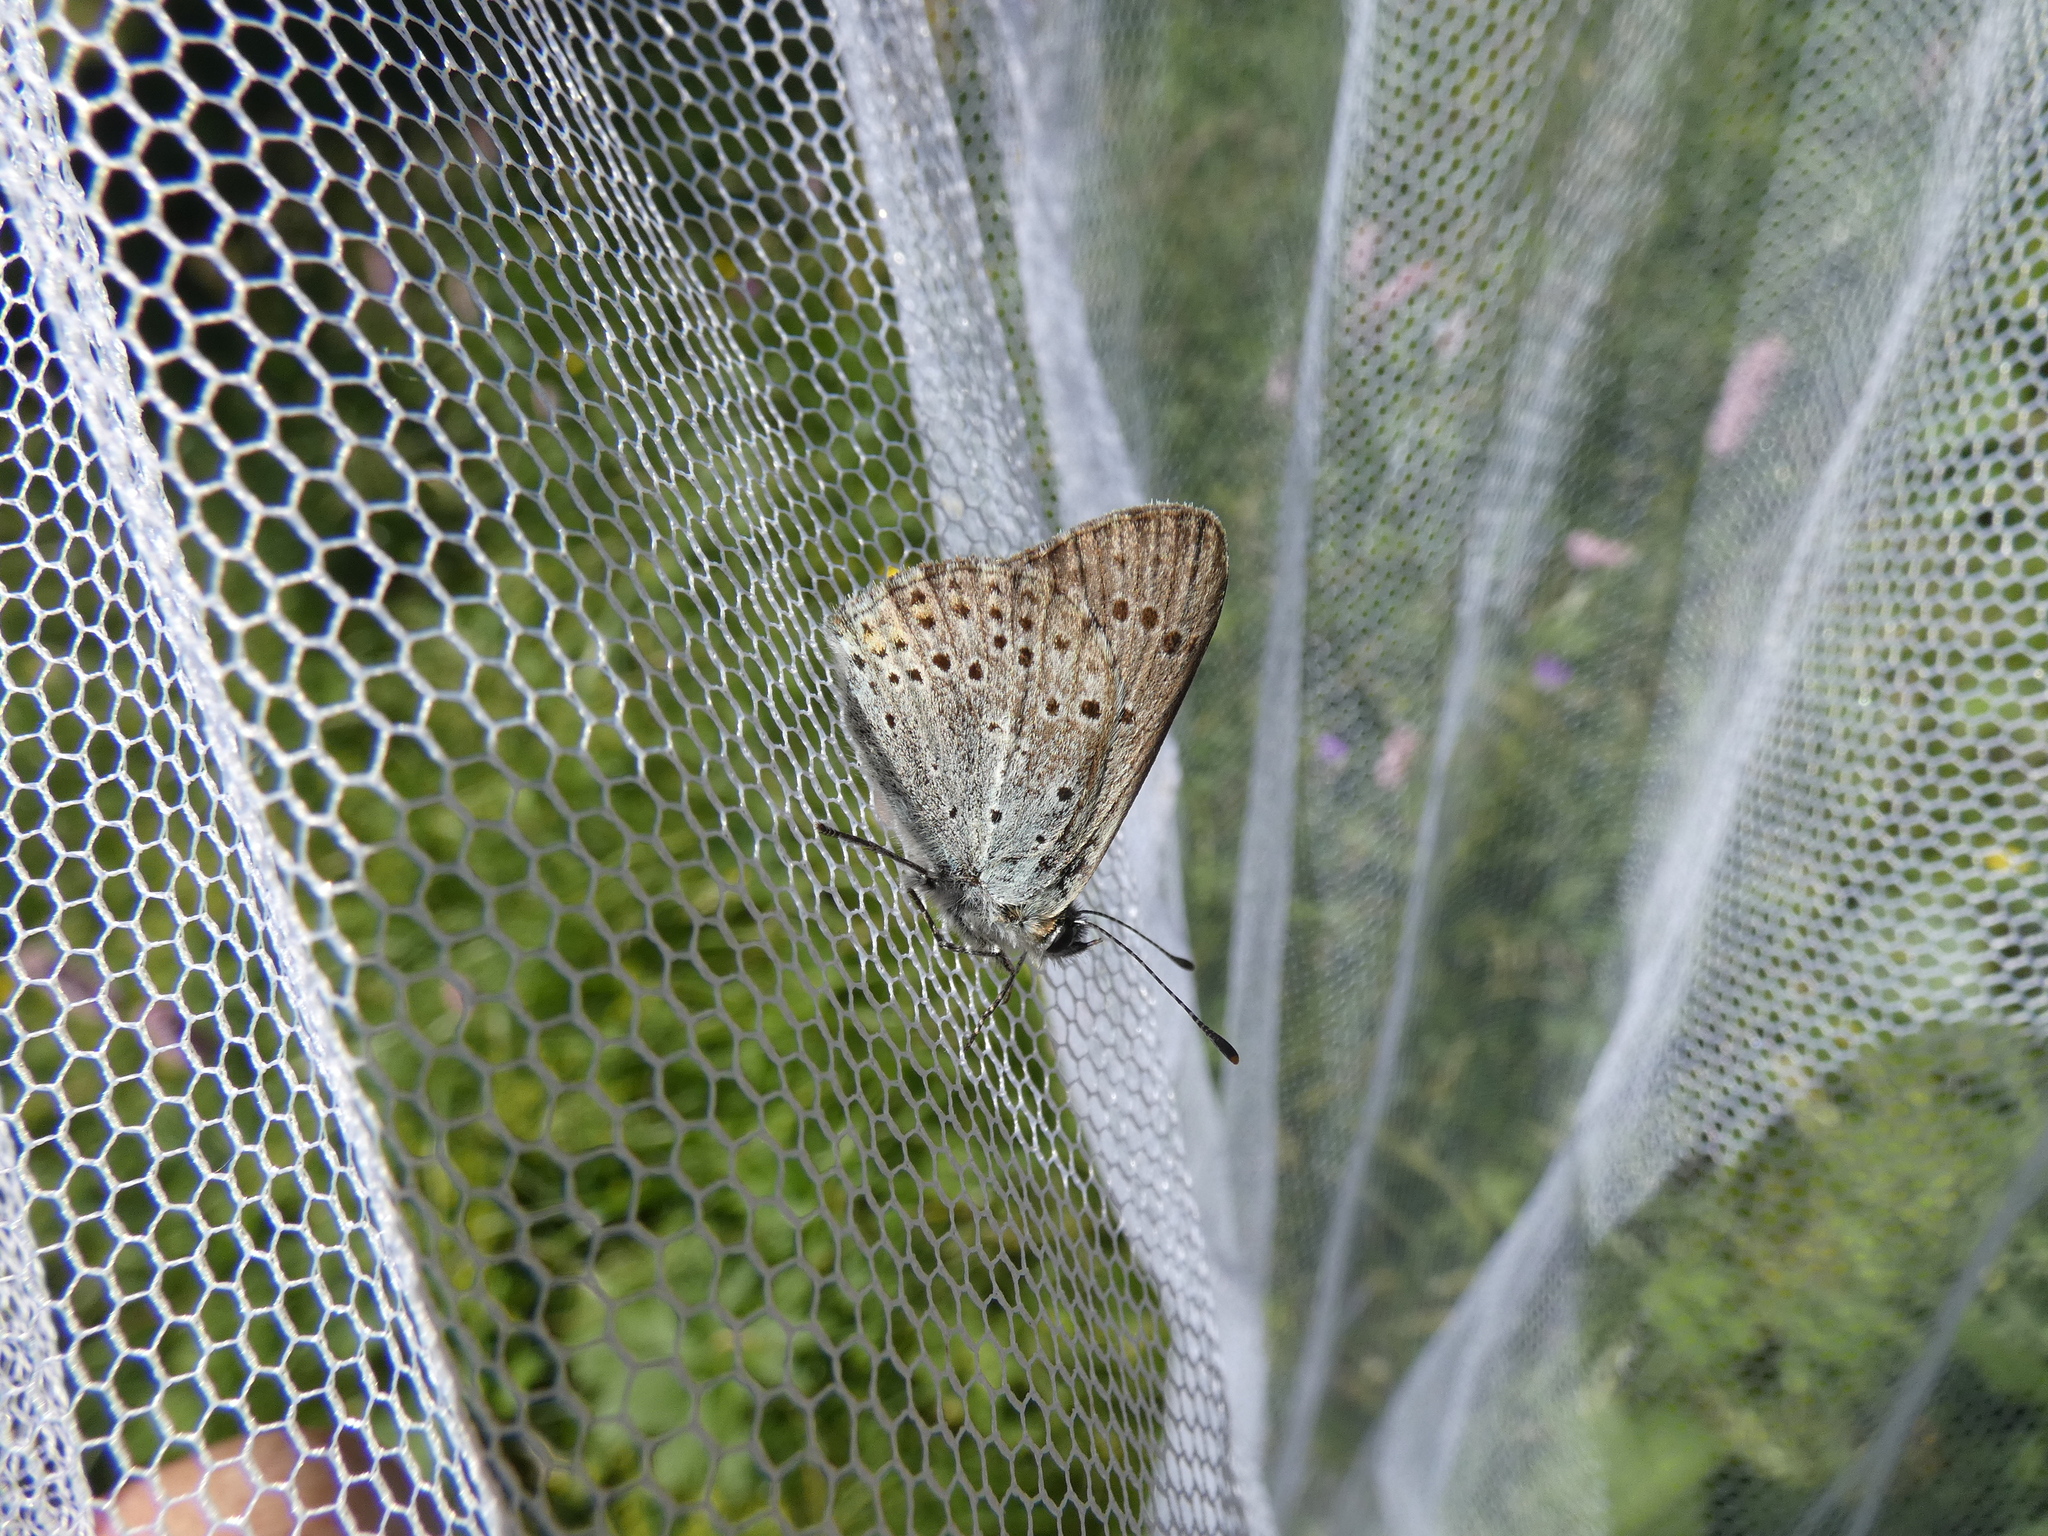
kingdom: Animalia
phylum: Arthropoda
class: Insecta
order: Lepidoptera
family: Lycaenidae
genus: Loweia
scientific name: Loweia tityrus
